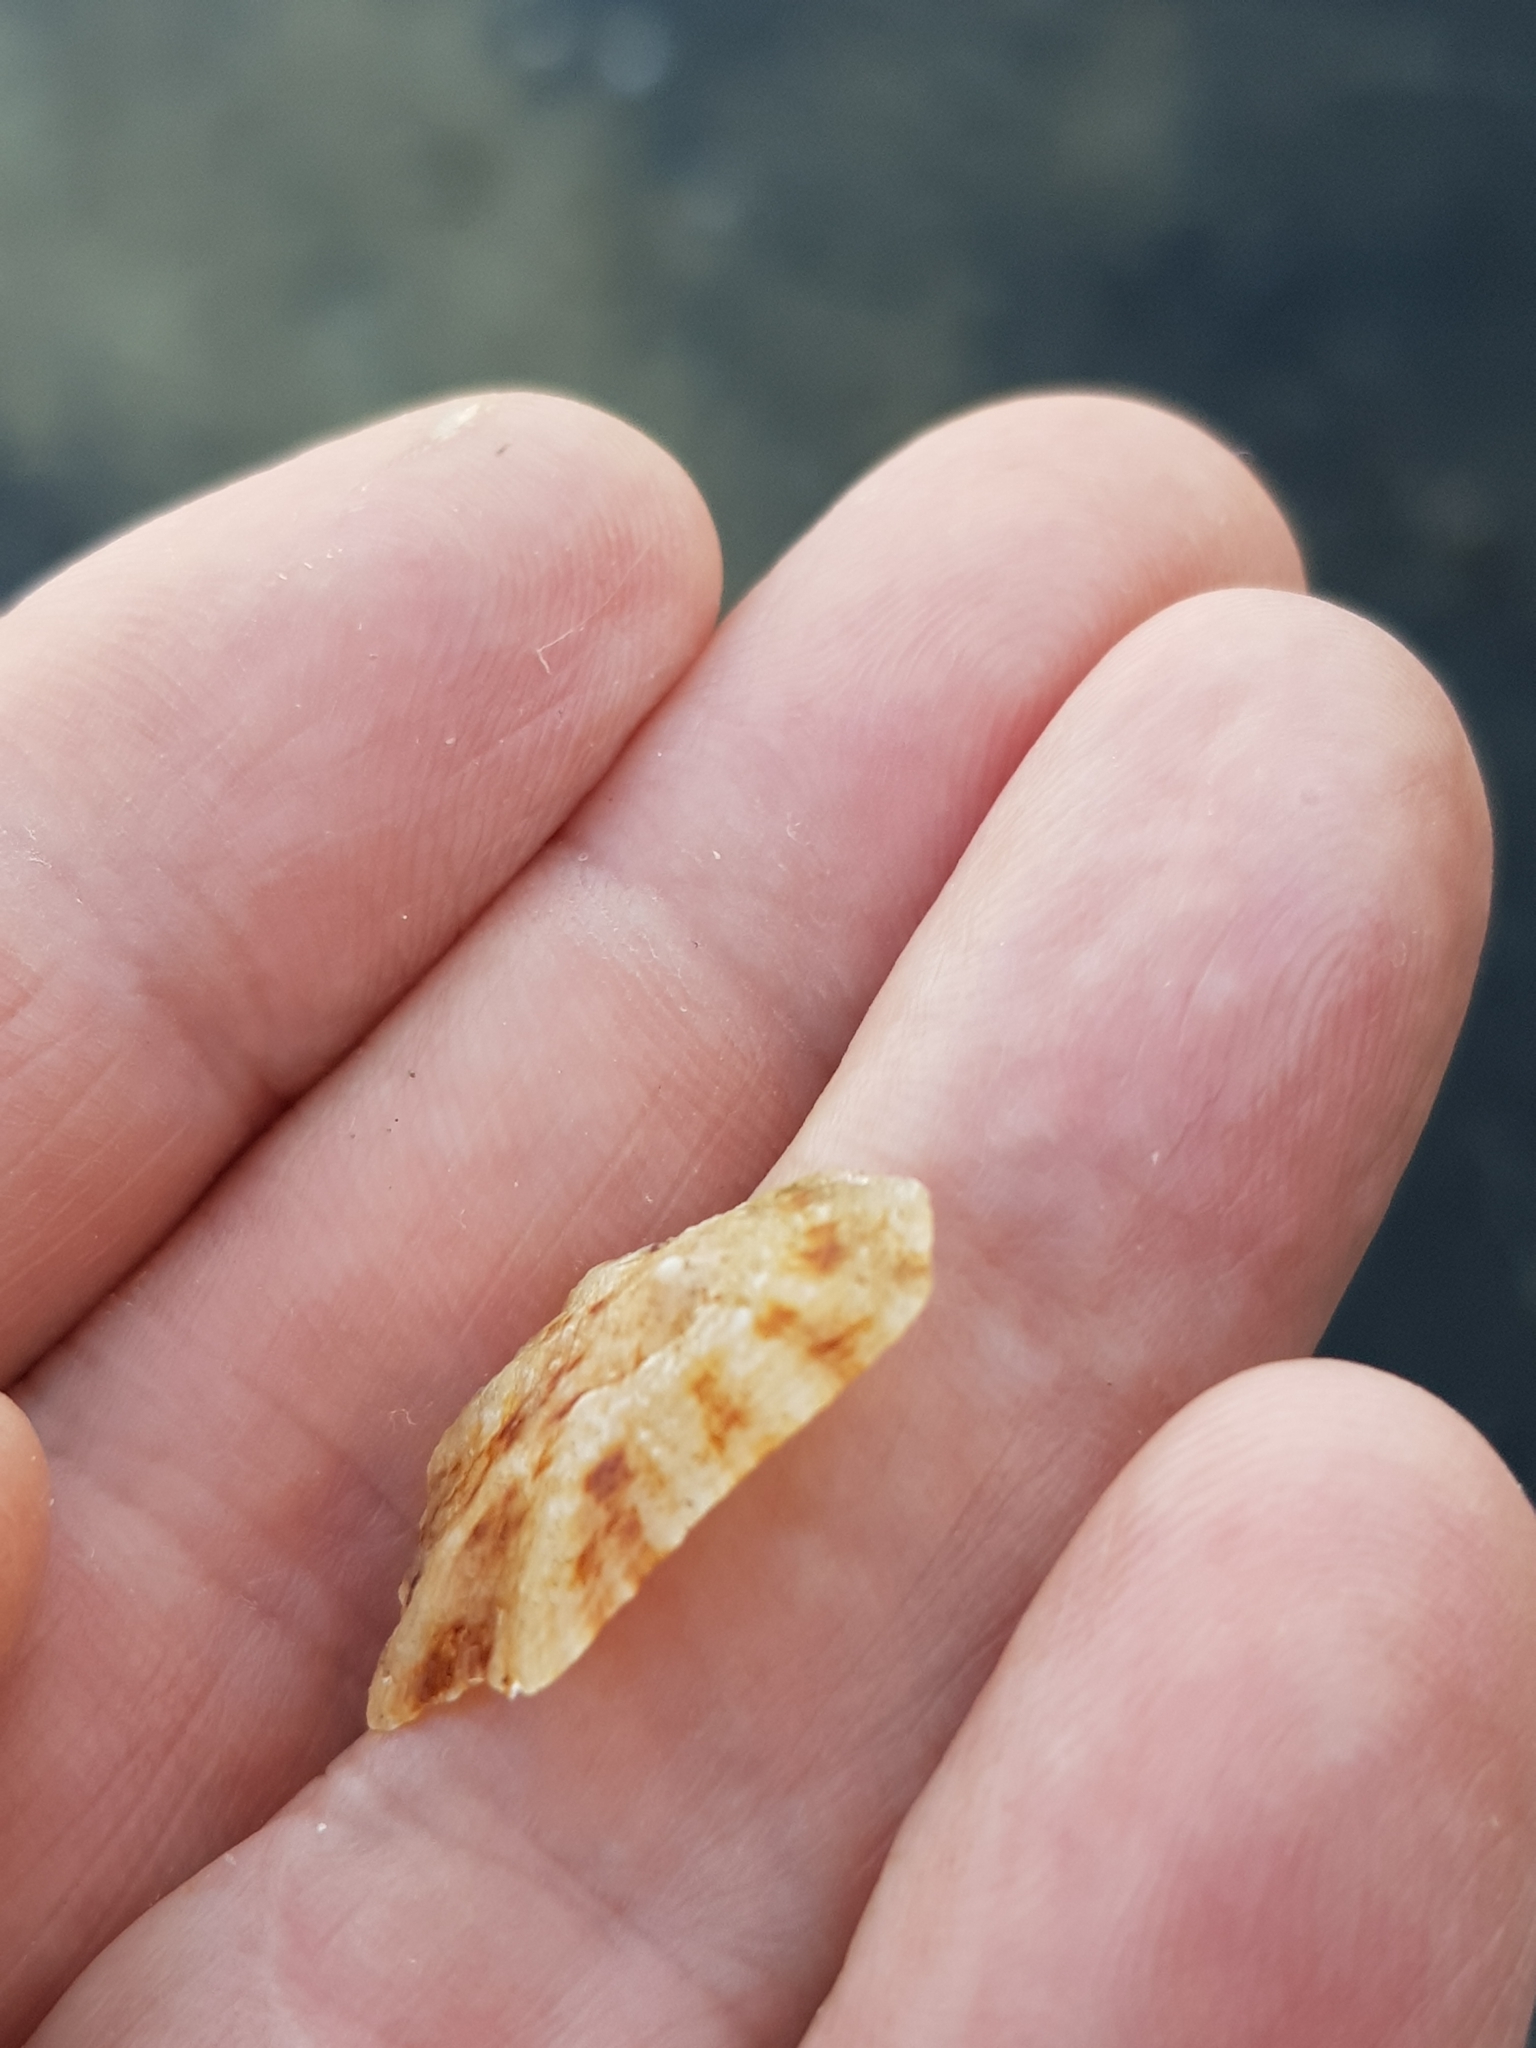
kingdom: Animalia
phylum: Mollusca
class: Gastropoda
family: Patellidae
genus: Patella
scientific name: Patella caerulea
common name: Mediterranean limpet
